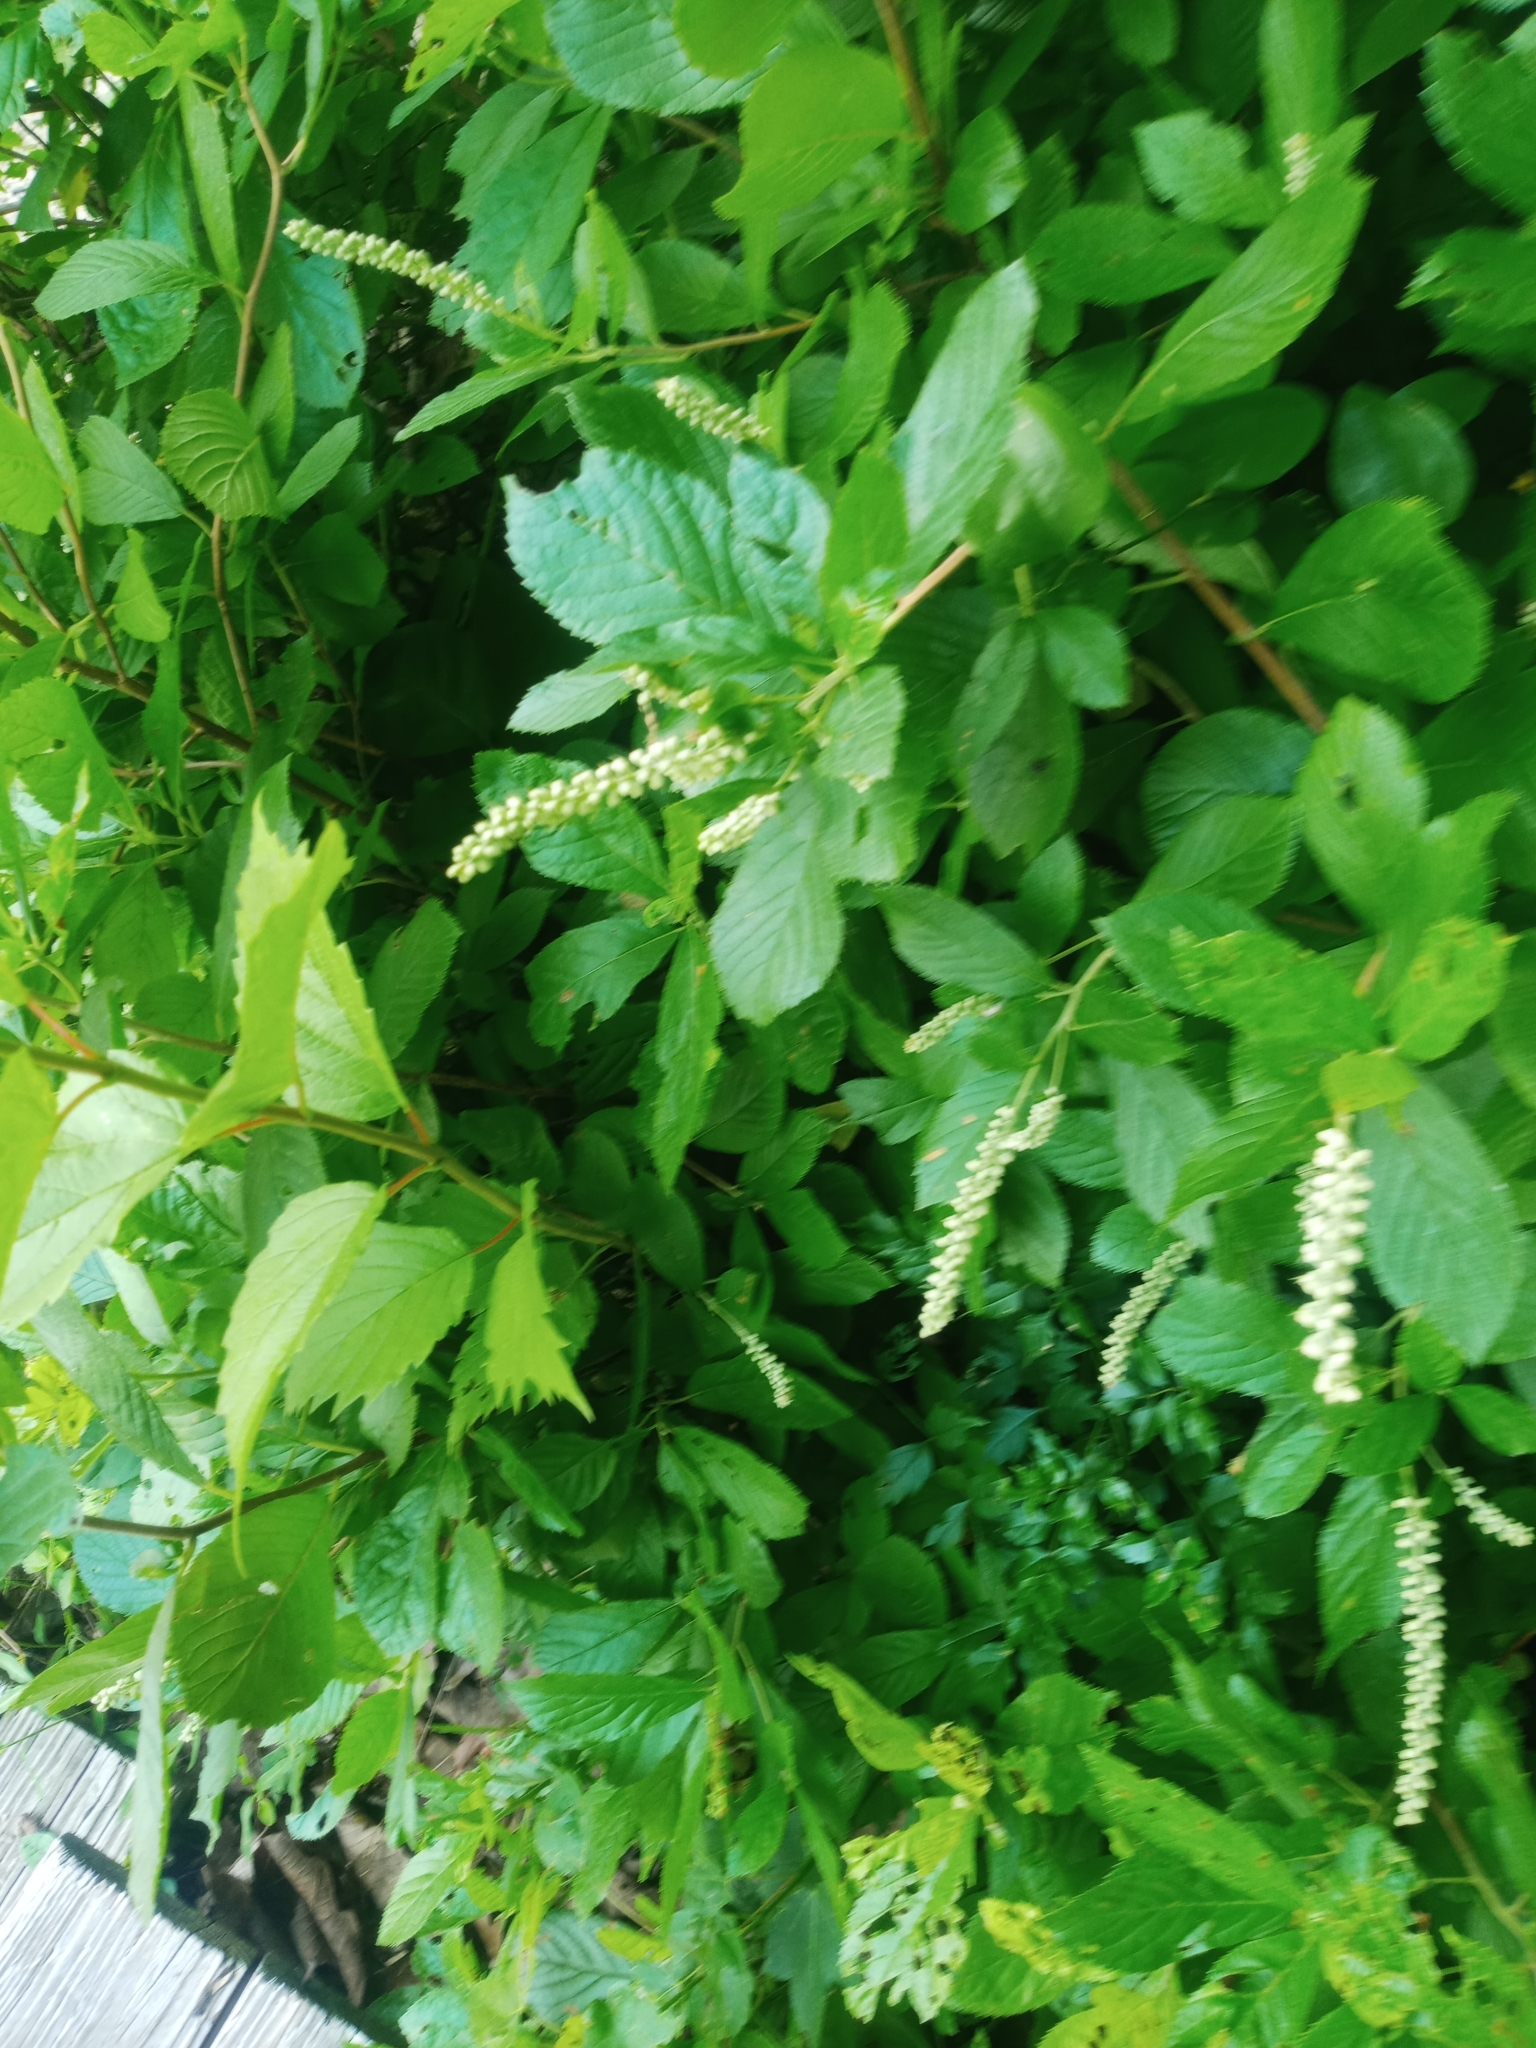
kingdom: Plantae
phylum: Tracheophyta
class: Magnoliopsida
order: Ericales
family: Clethraceae
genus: Clethra
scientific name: Clethra alnifolia
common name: Sweet pepperbush
